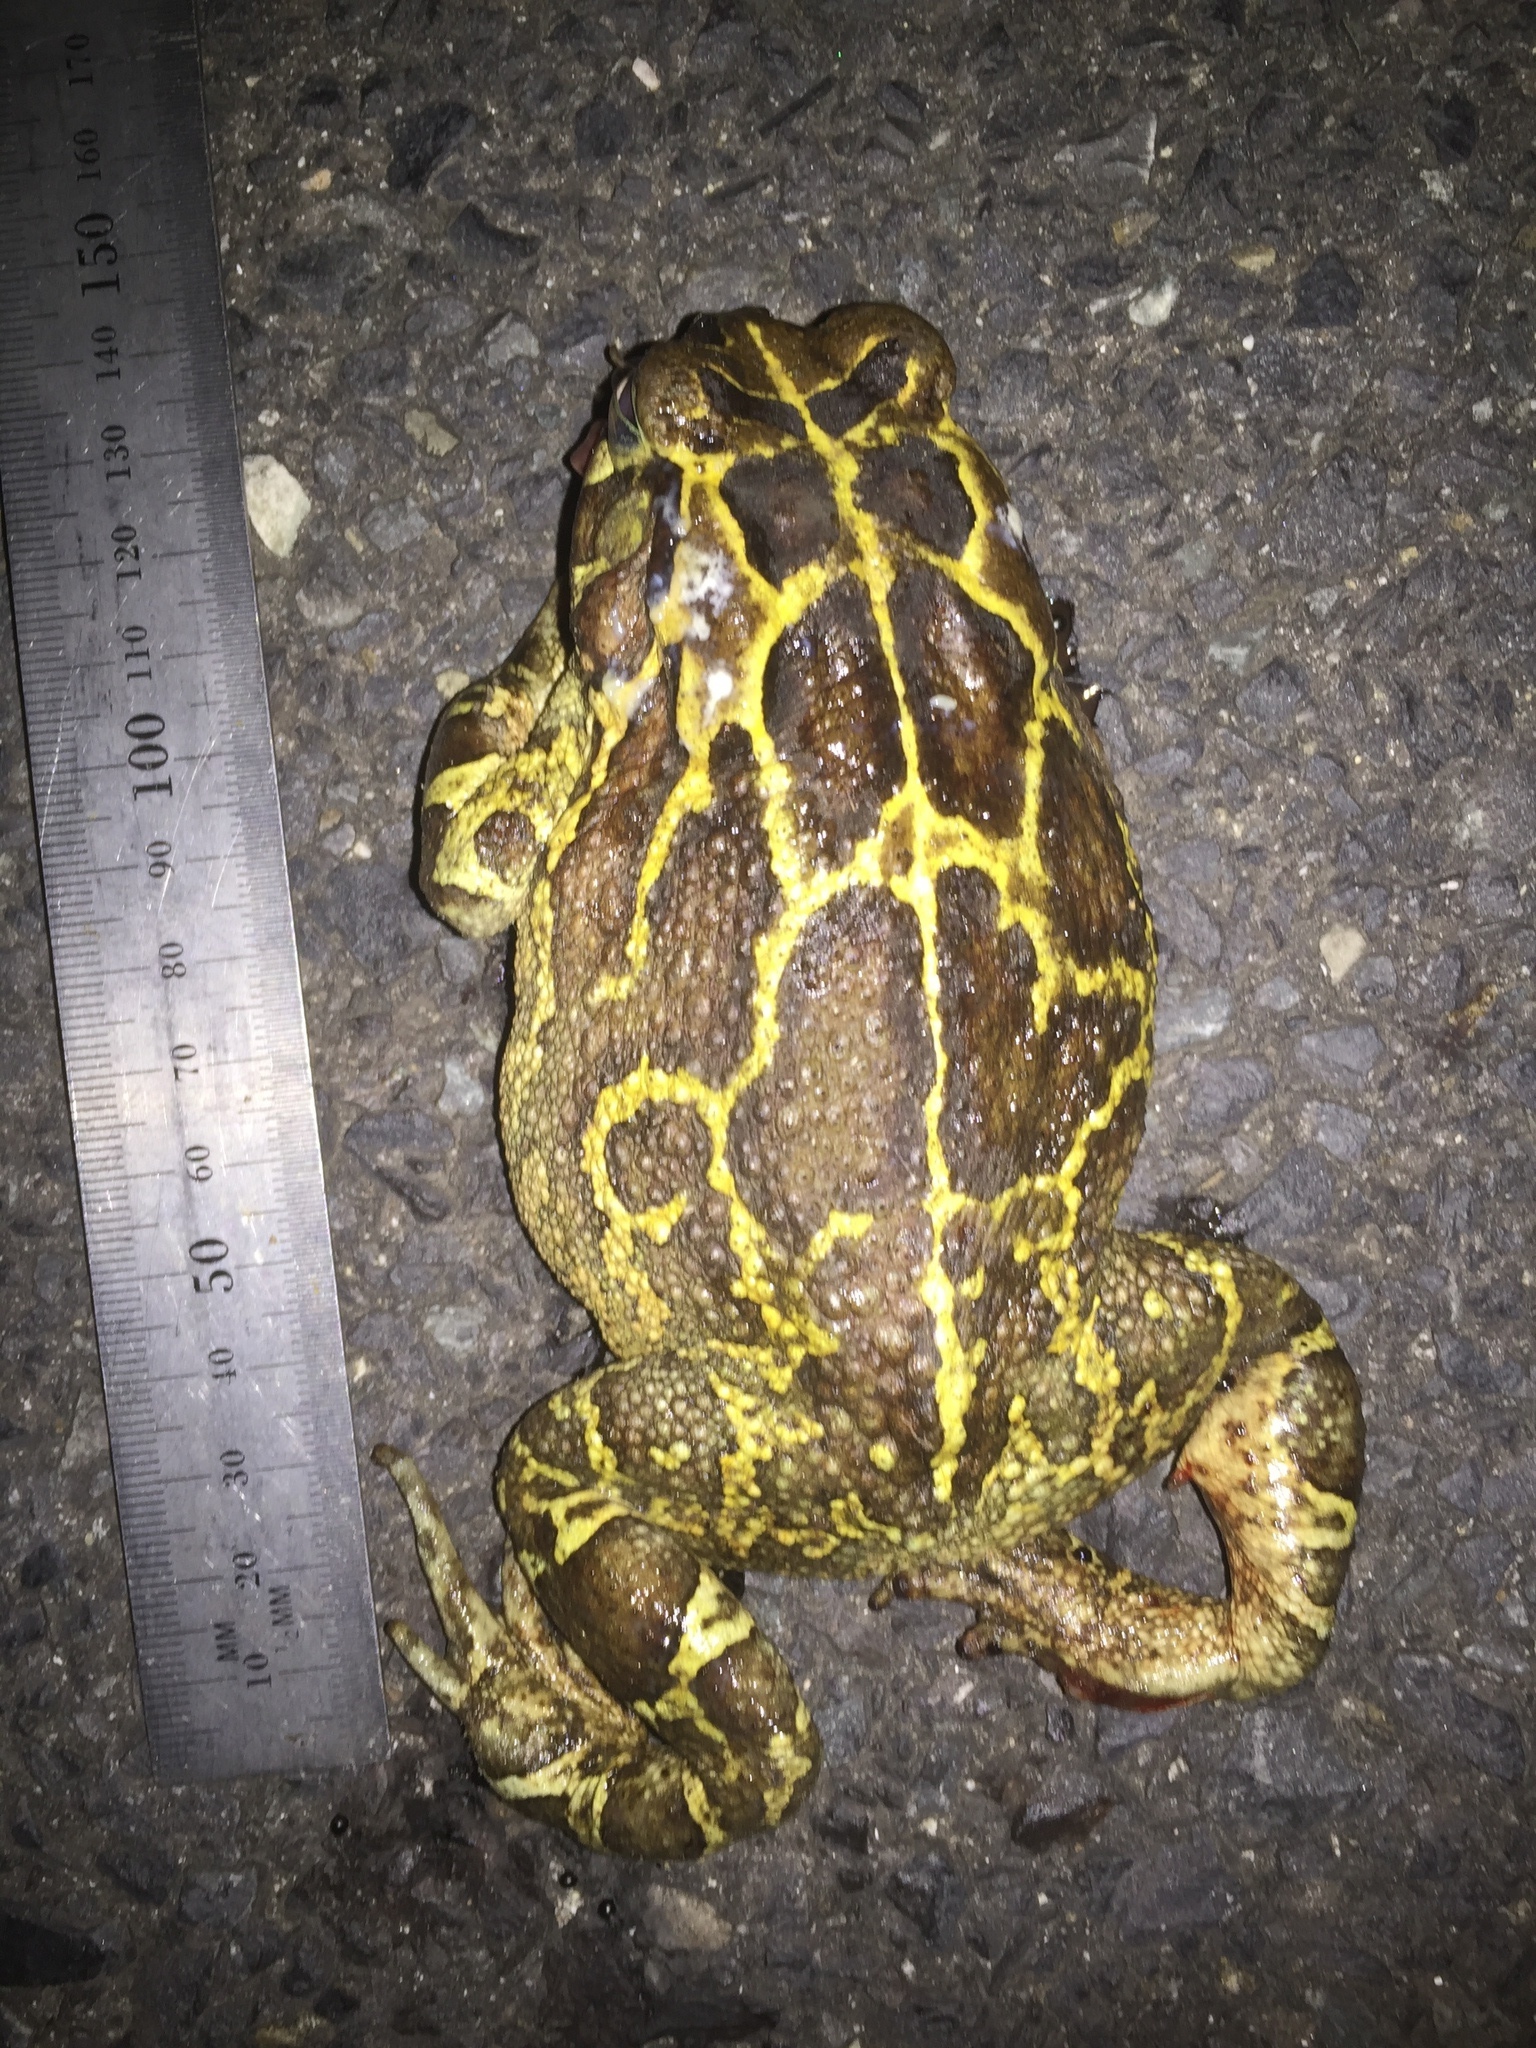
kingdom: Animalia
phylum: Chordata
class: Amphibia
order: Anura
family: Bufonidae
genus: Sclerophrys
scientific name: Sclerophrys pantherina
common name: Panther toad
